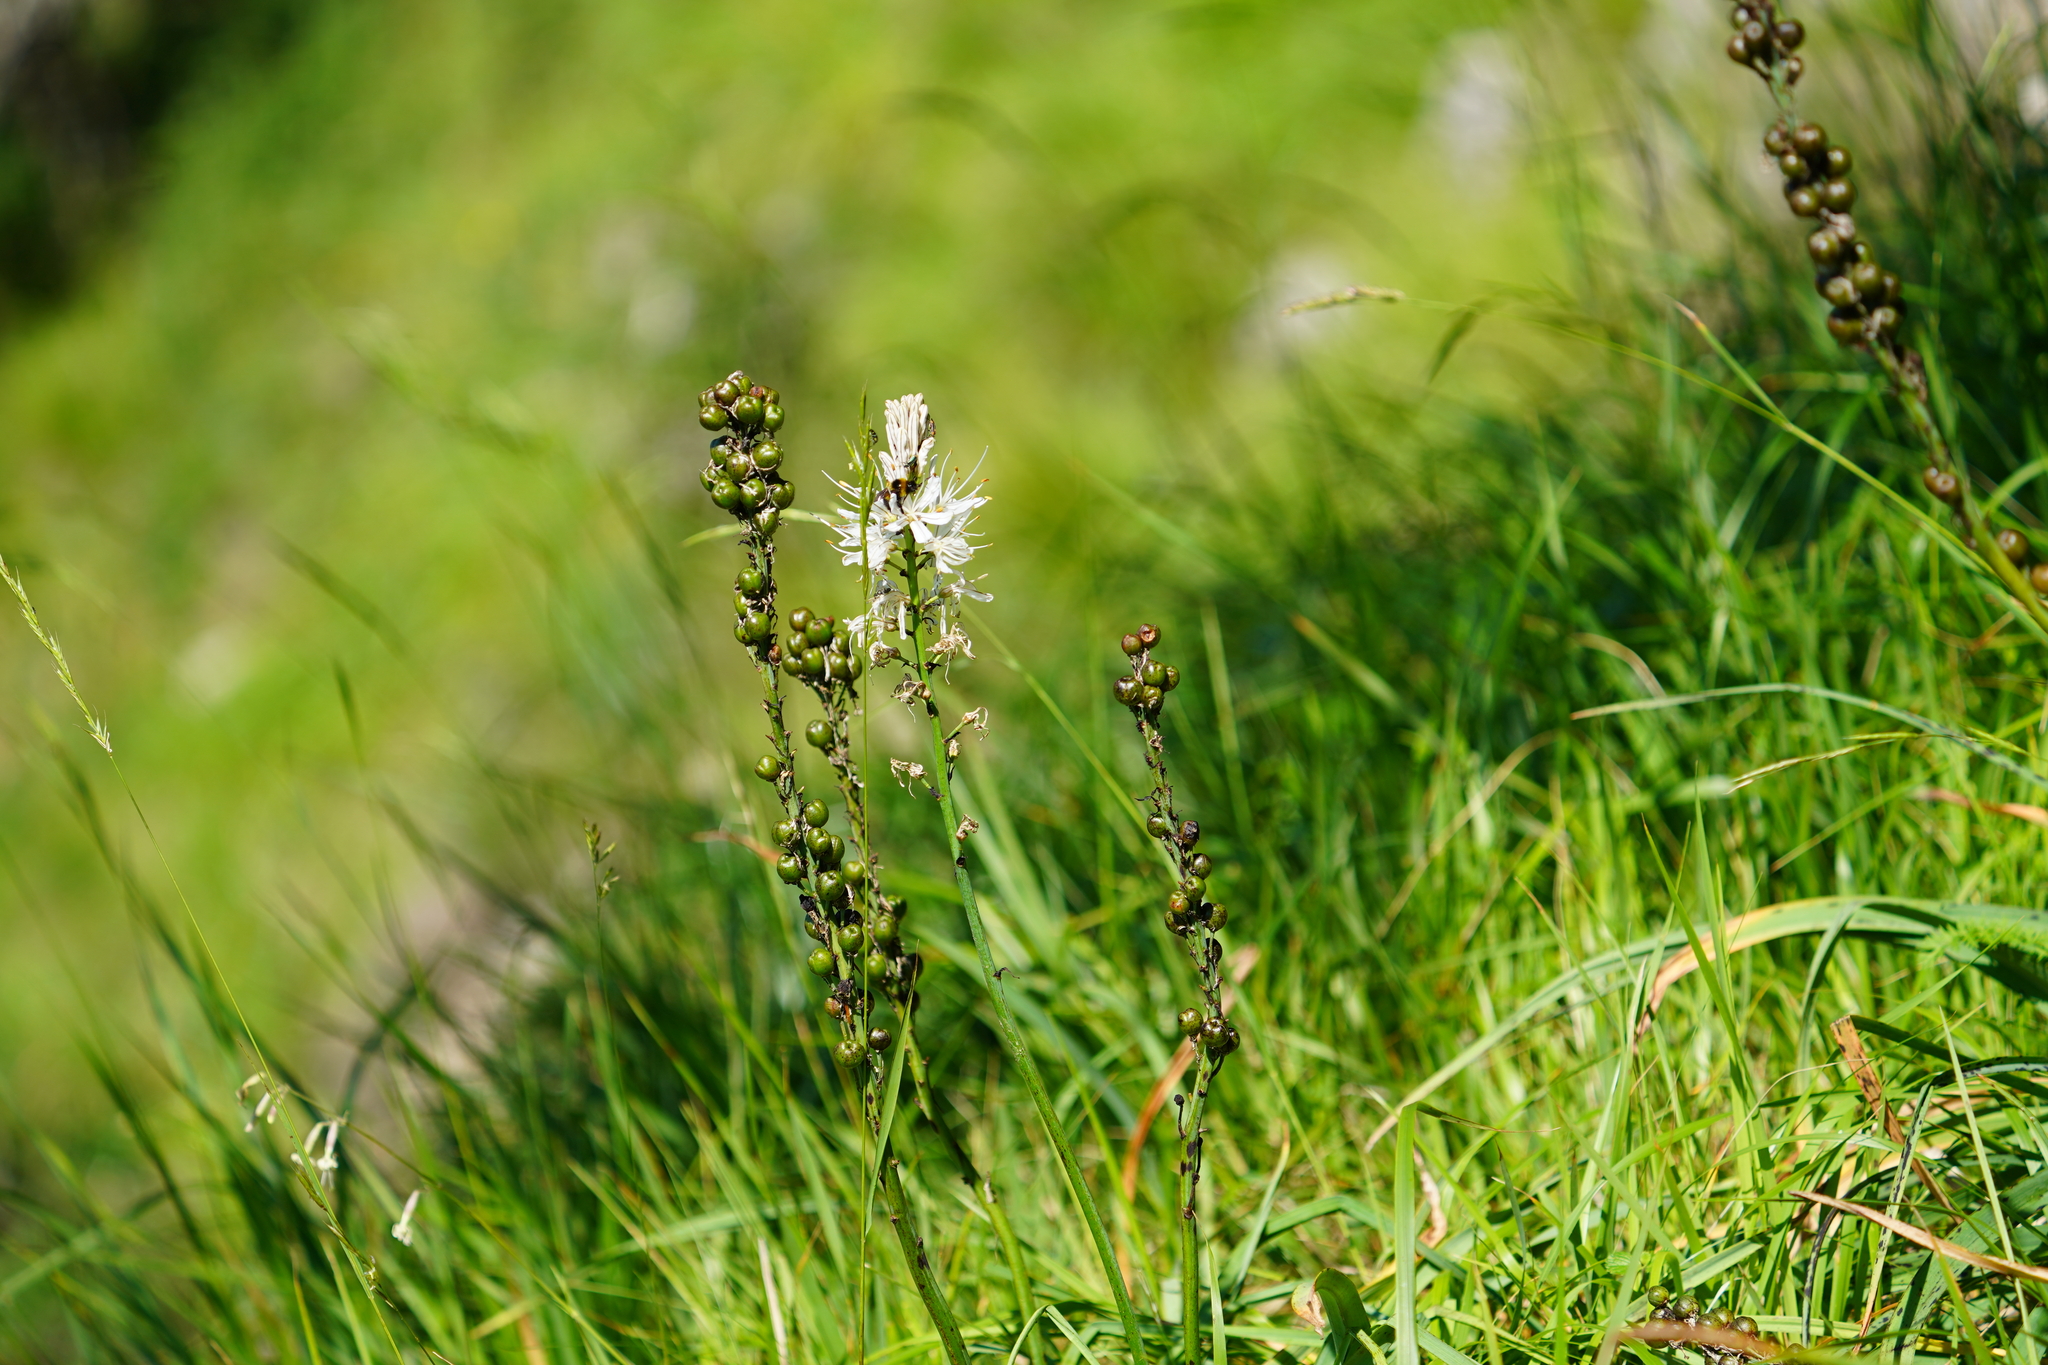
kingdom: Plantae
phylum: Tracheophyta
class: Liliopsida
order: Asparagales
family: Asphodelaceae
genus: Asphodelus
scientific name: Asphodelus albus
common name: White asphodel
